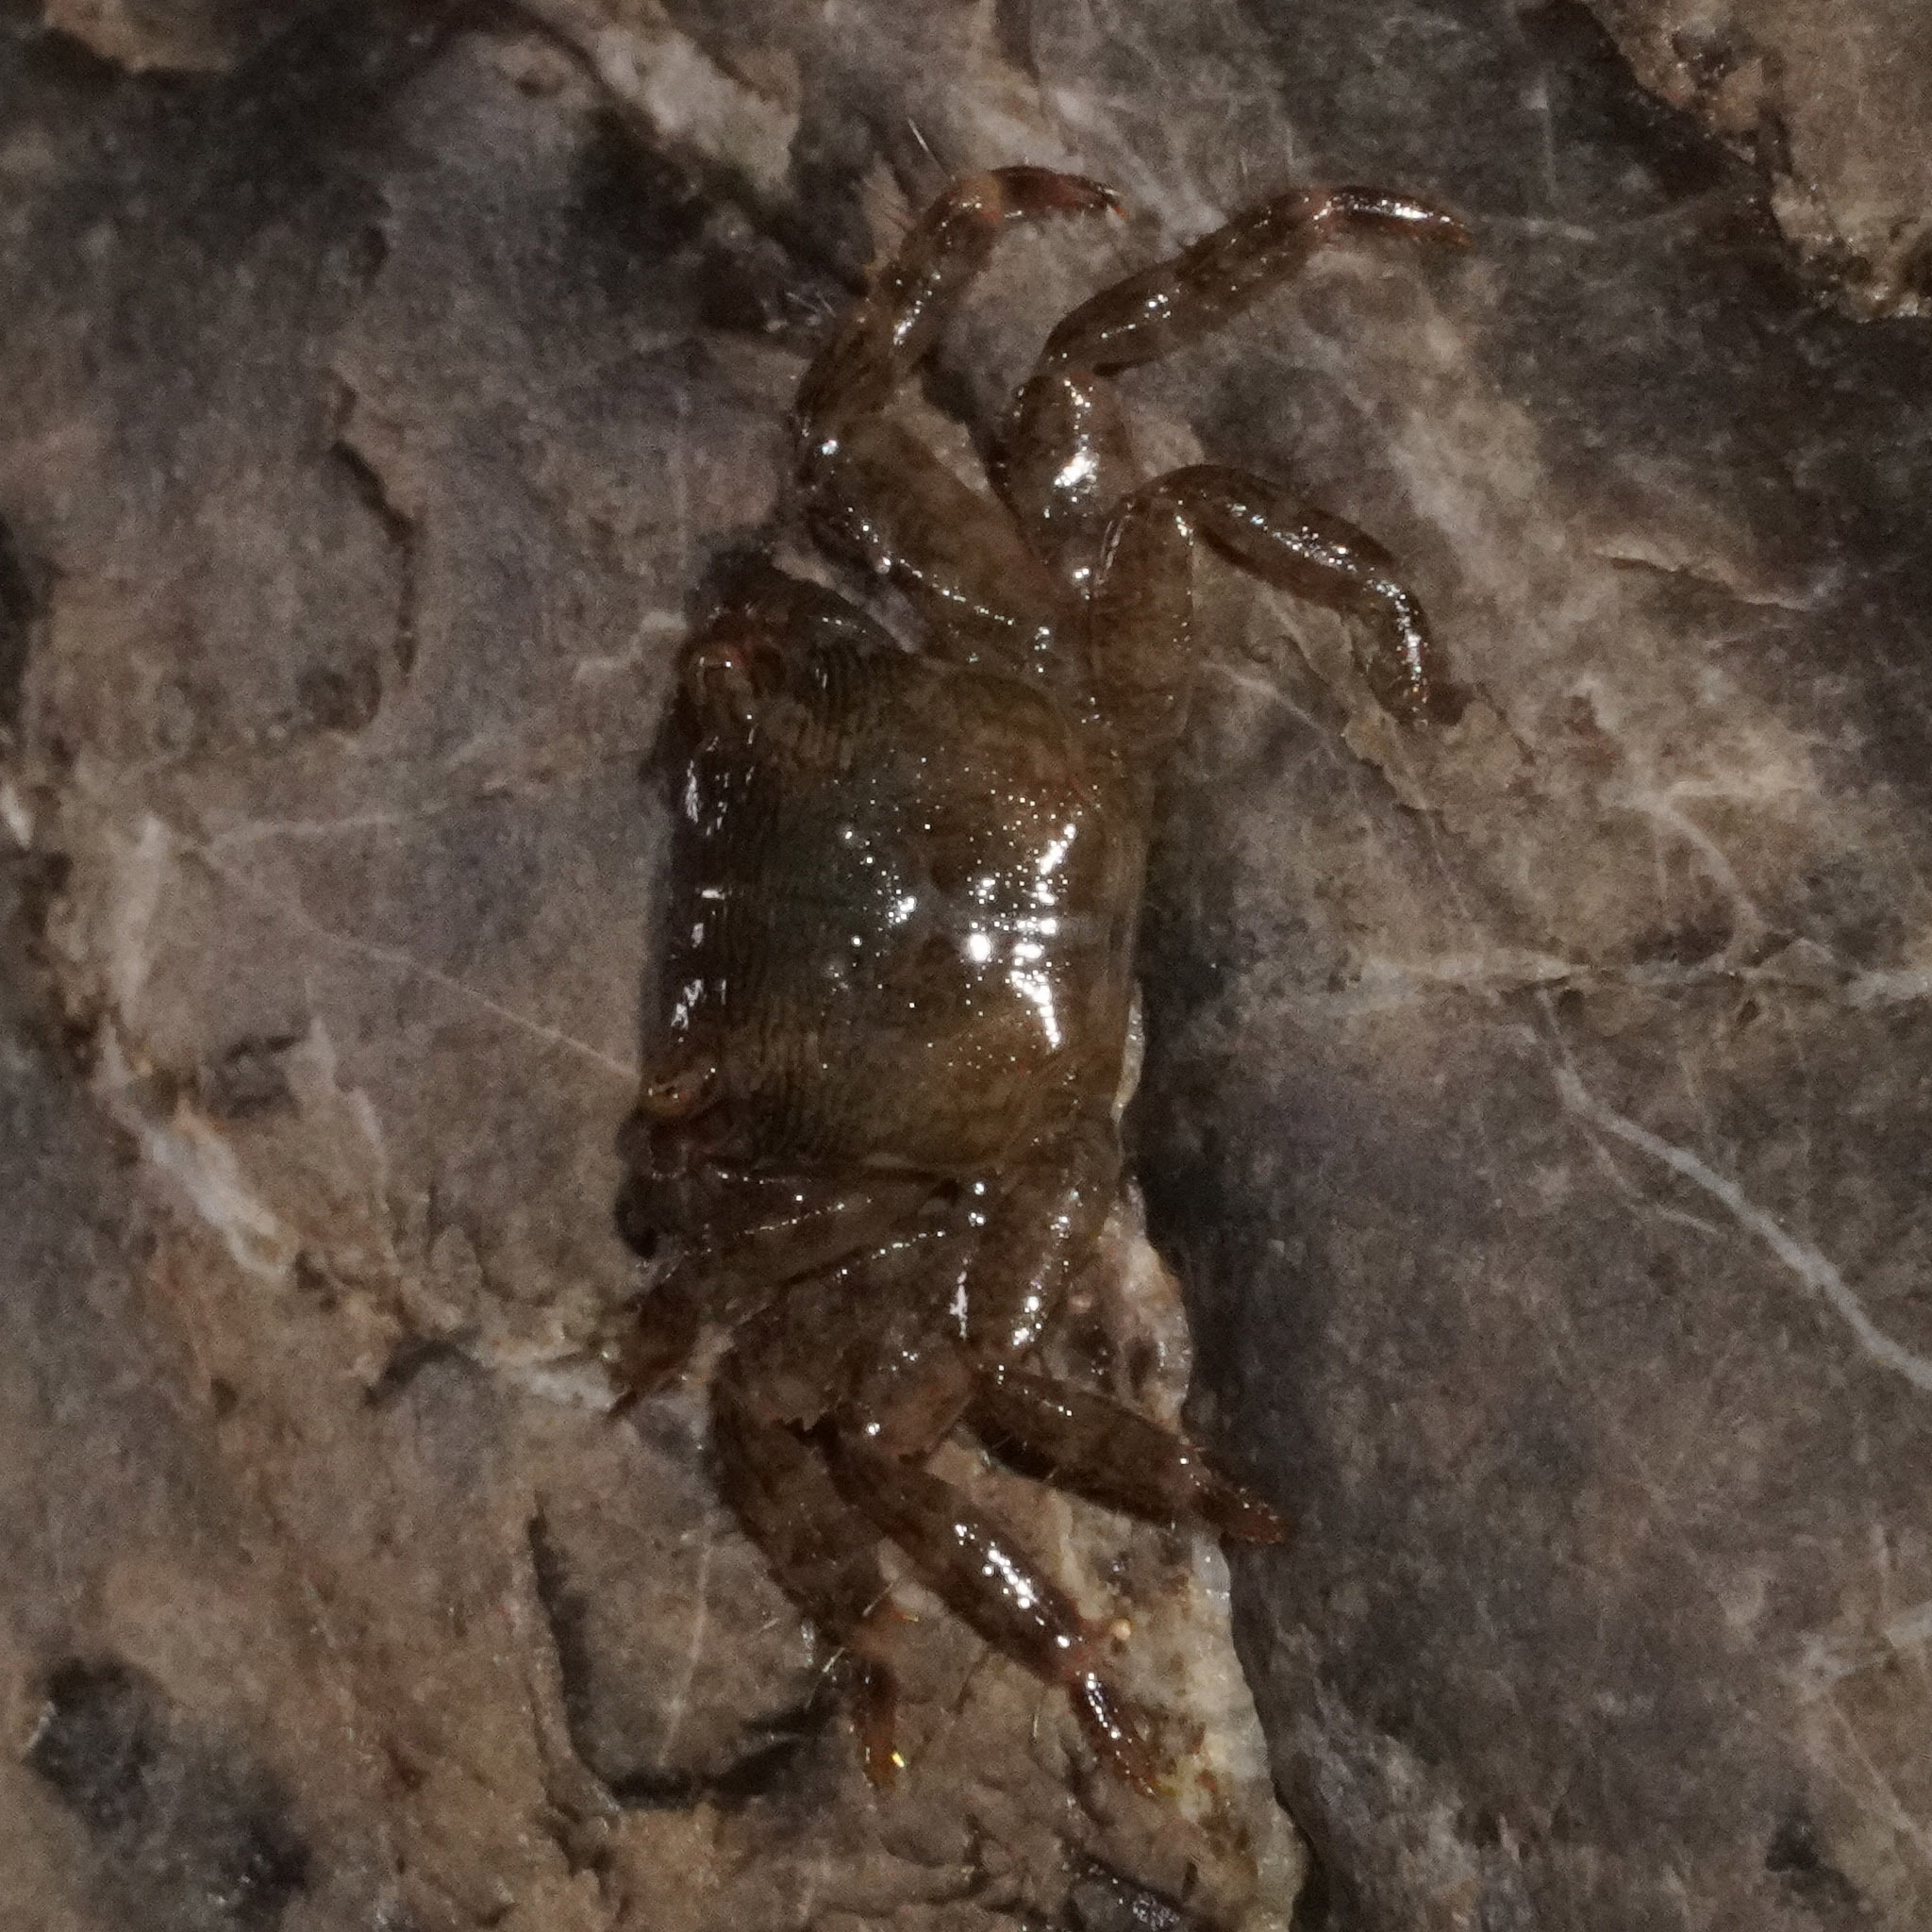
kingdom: Animalia
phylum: Arthropoda
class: Malacostraca
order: Decapoda
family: Grapsidae
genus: Pachygrapsus
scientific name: Pachygrapsus marmoratus
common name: Marbled rock crab
